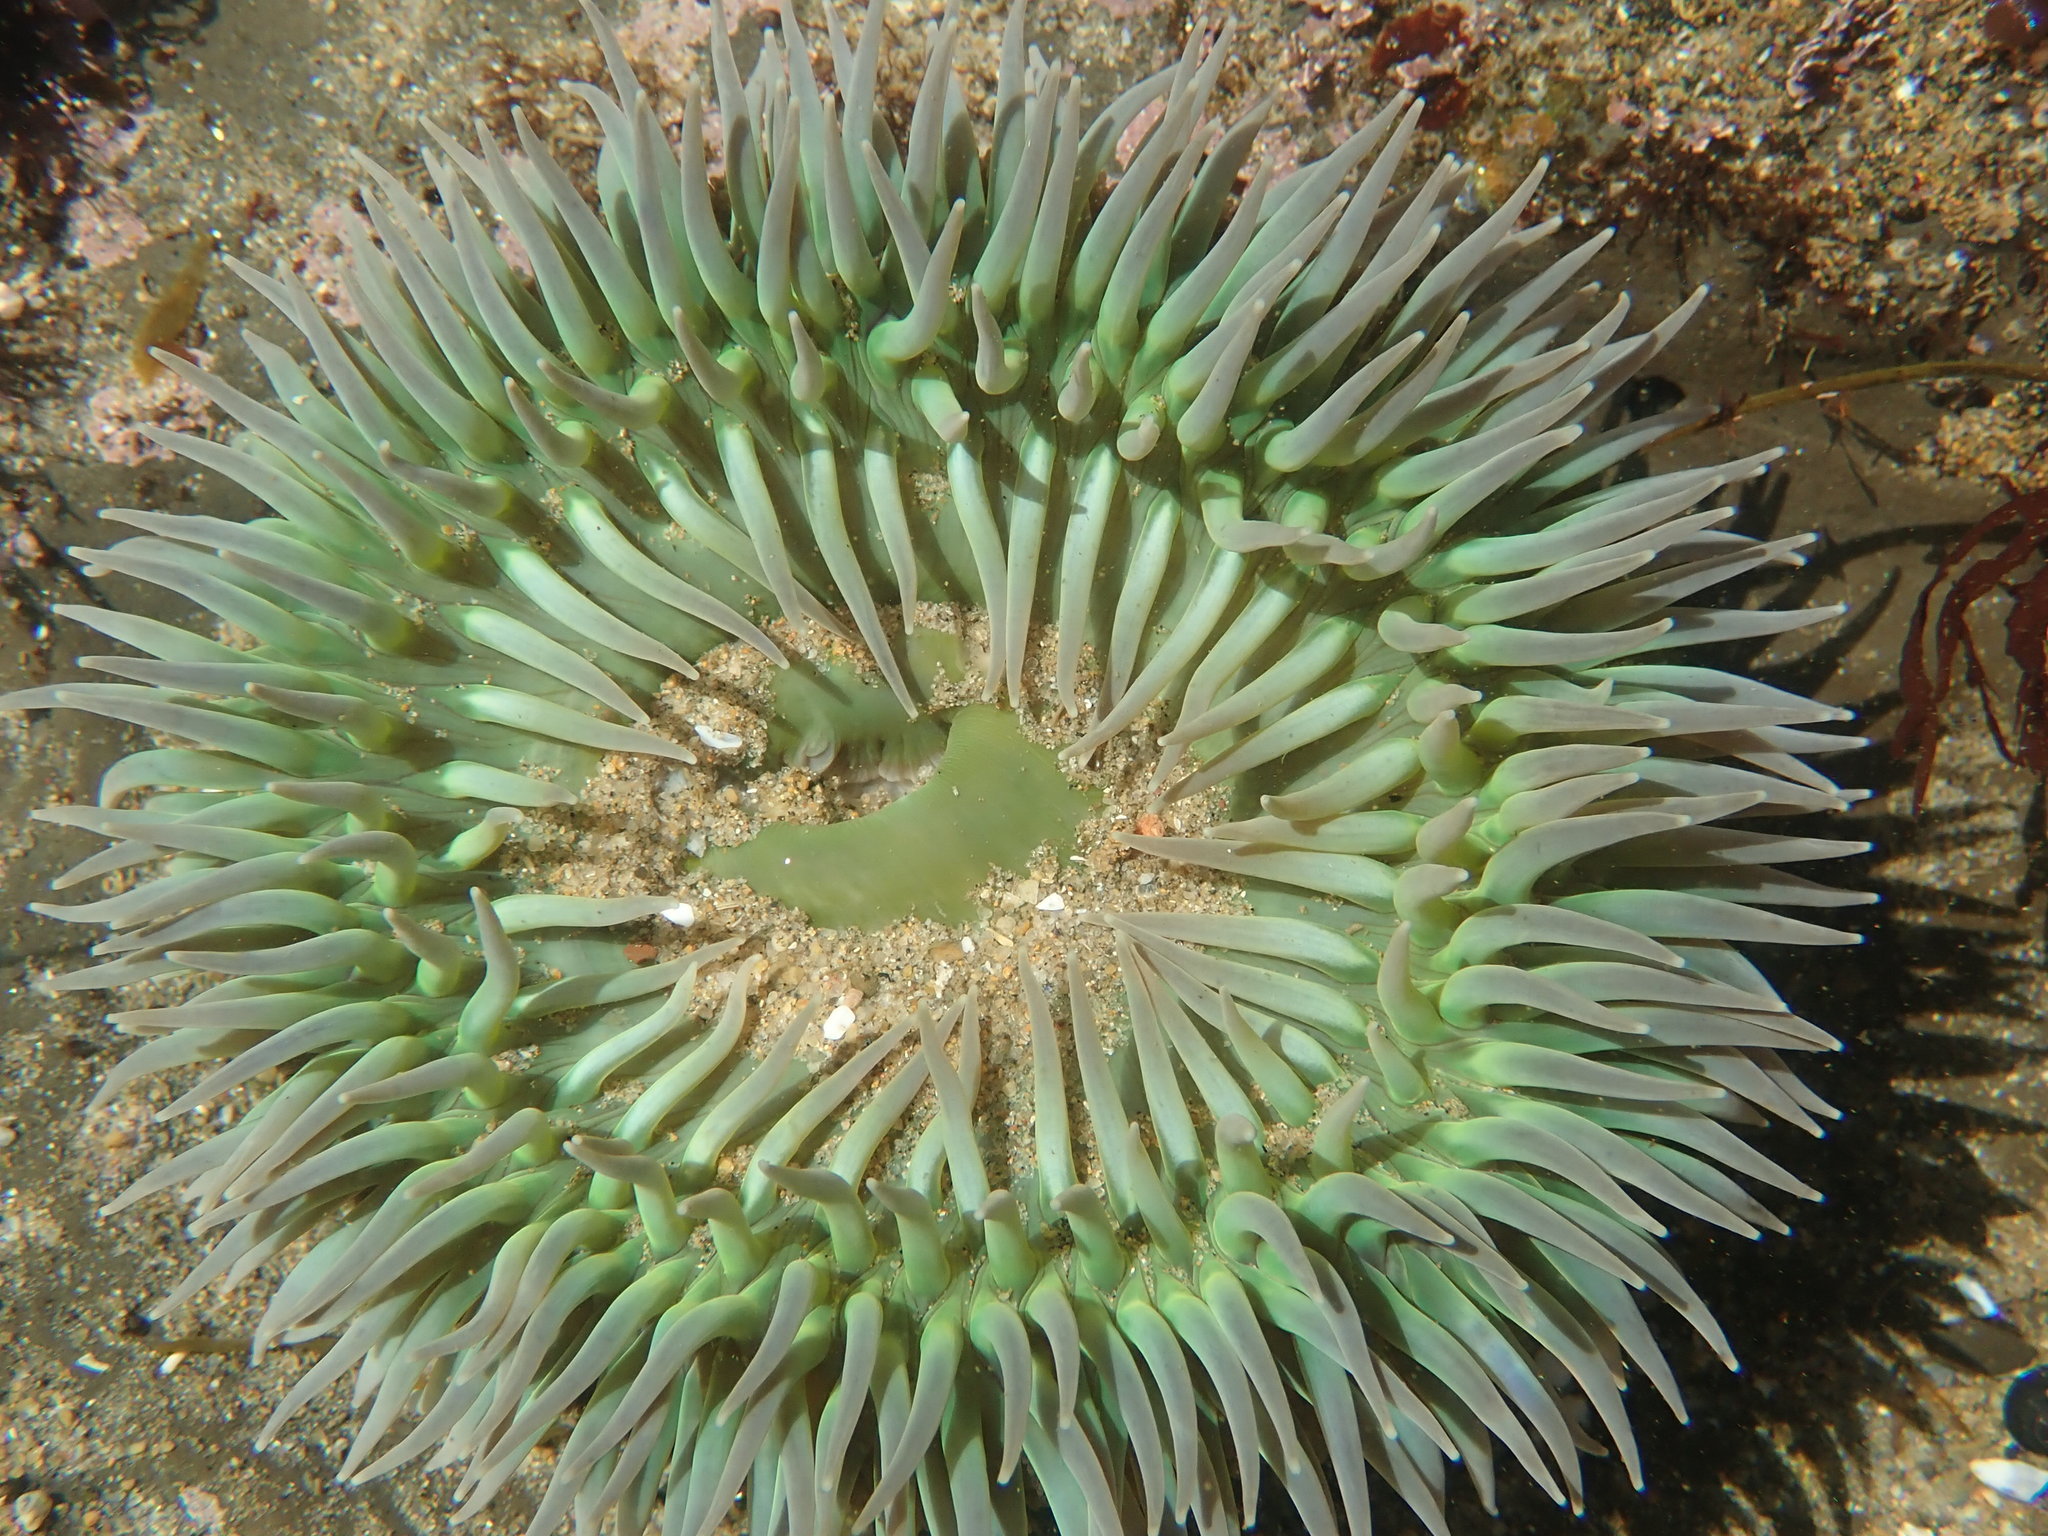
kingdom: Animalia
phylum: Cnidaria
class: Anthozoa
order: Actiniaria
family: Actiniidae
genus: Anthopleura
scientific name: Anthopleura xanthogrammica
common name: Giant green anemone
